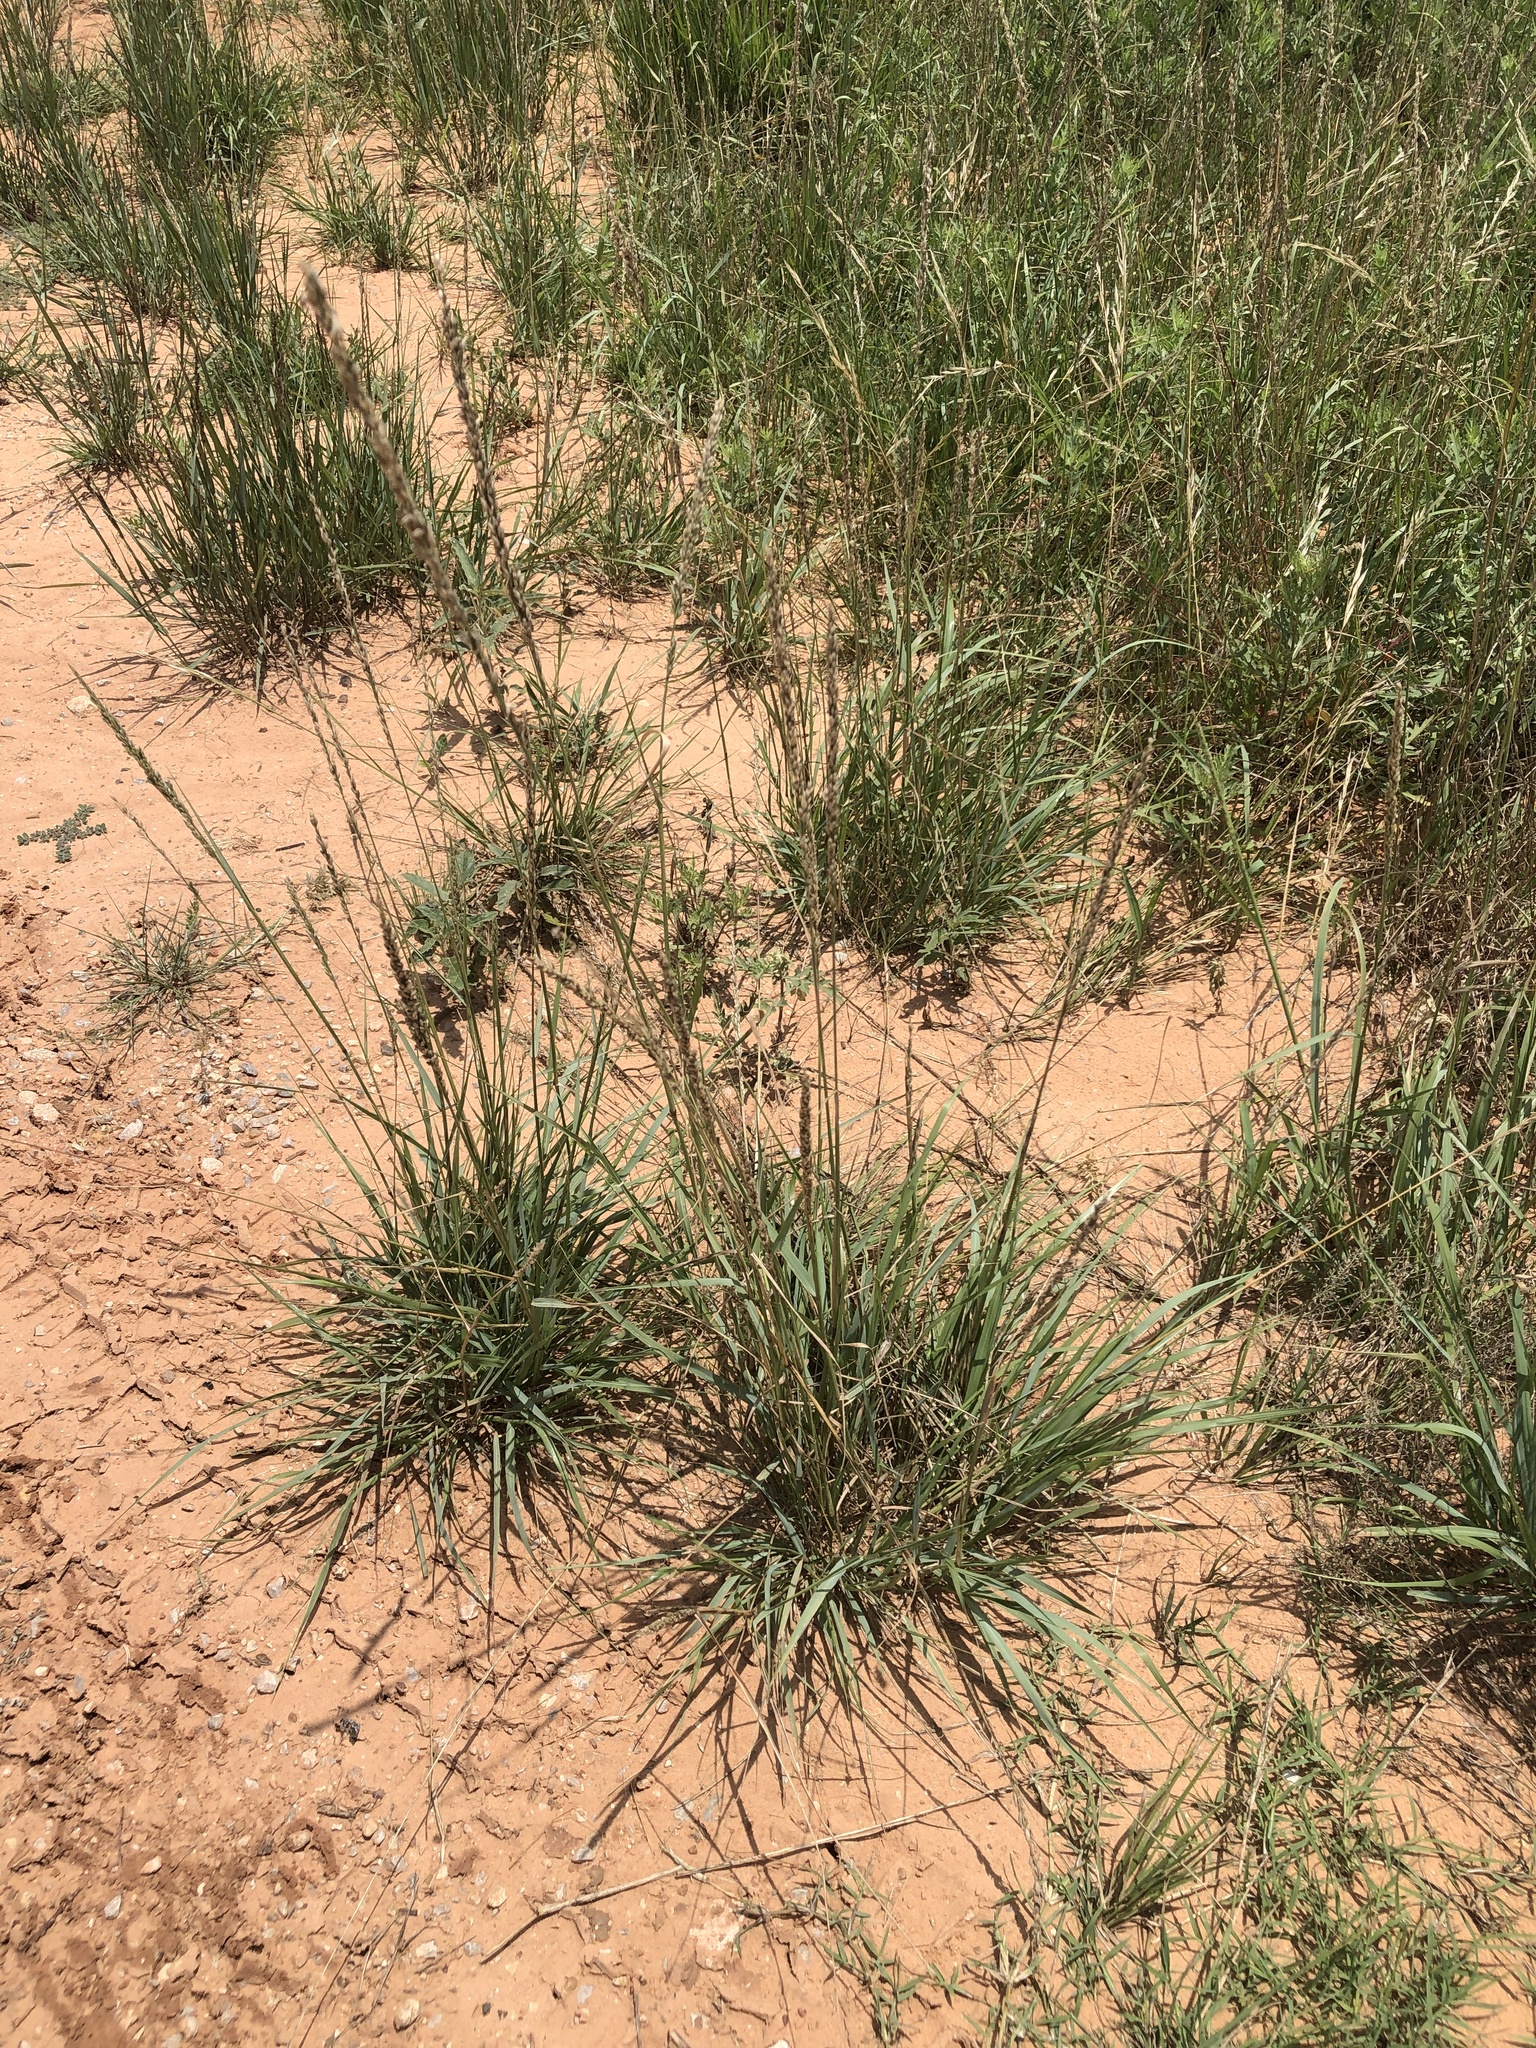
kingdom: Plantae
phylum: Tracheophyta
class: Liliopsida
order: Poales
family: Poaceae
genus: Tridens
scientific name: Tridens albescens
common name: White tridens
